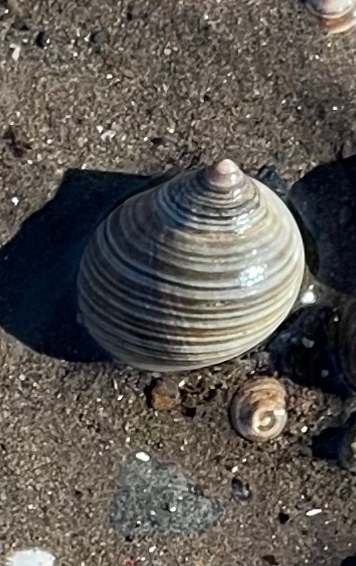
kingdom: Animalia
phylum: Mollusca
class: Gastropoda
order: Littorinimorpha
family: Littorinidae
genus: Littorina
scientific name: Littorina littorea
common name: Common periwinkle
